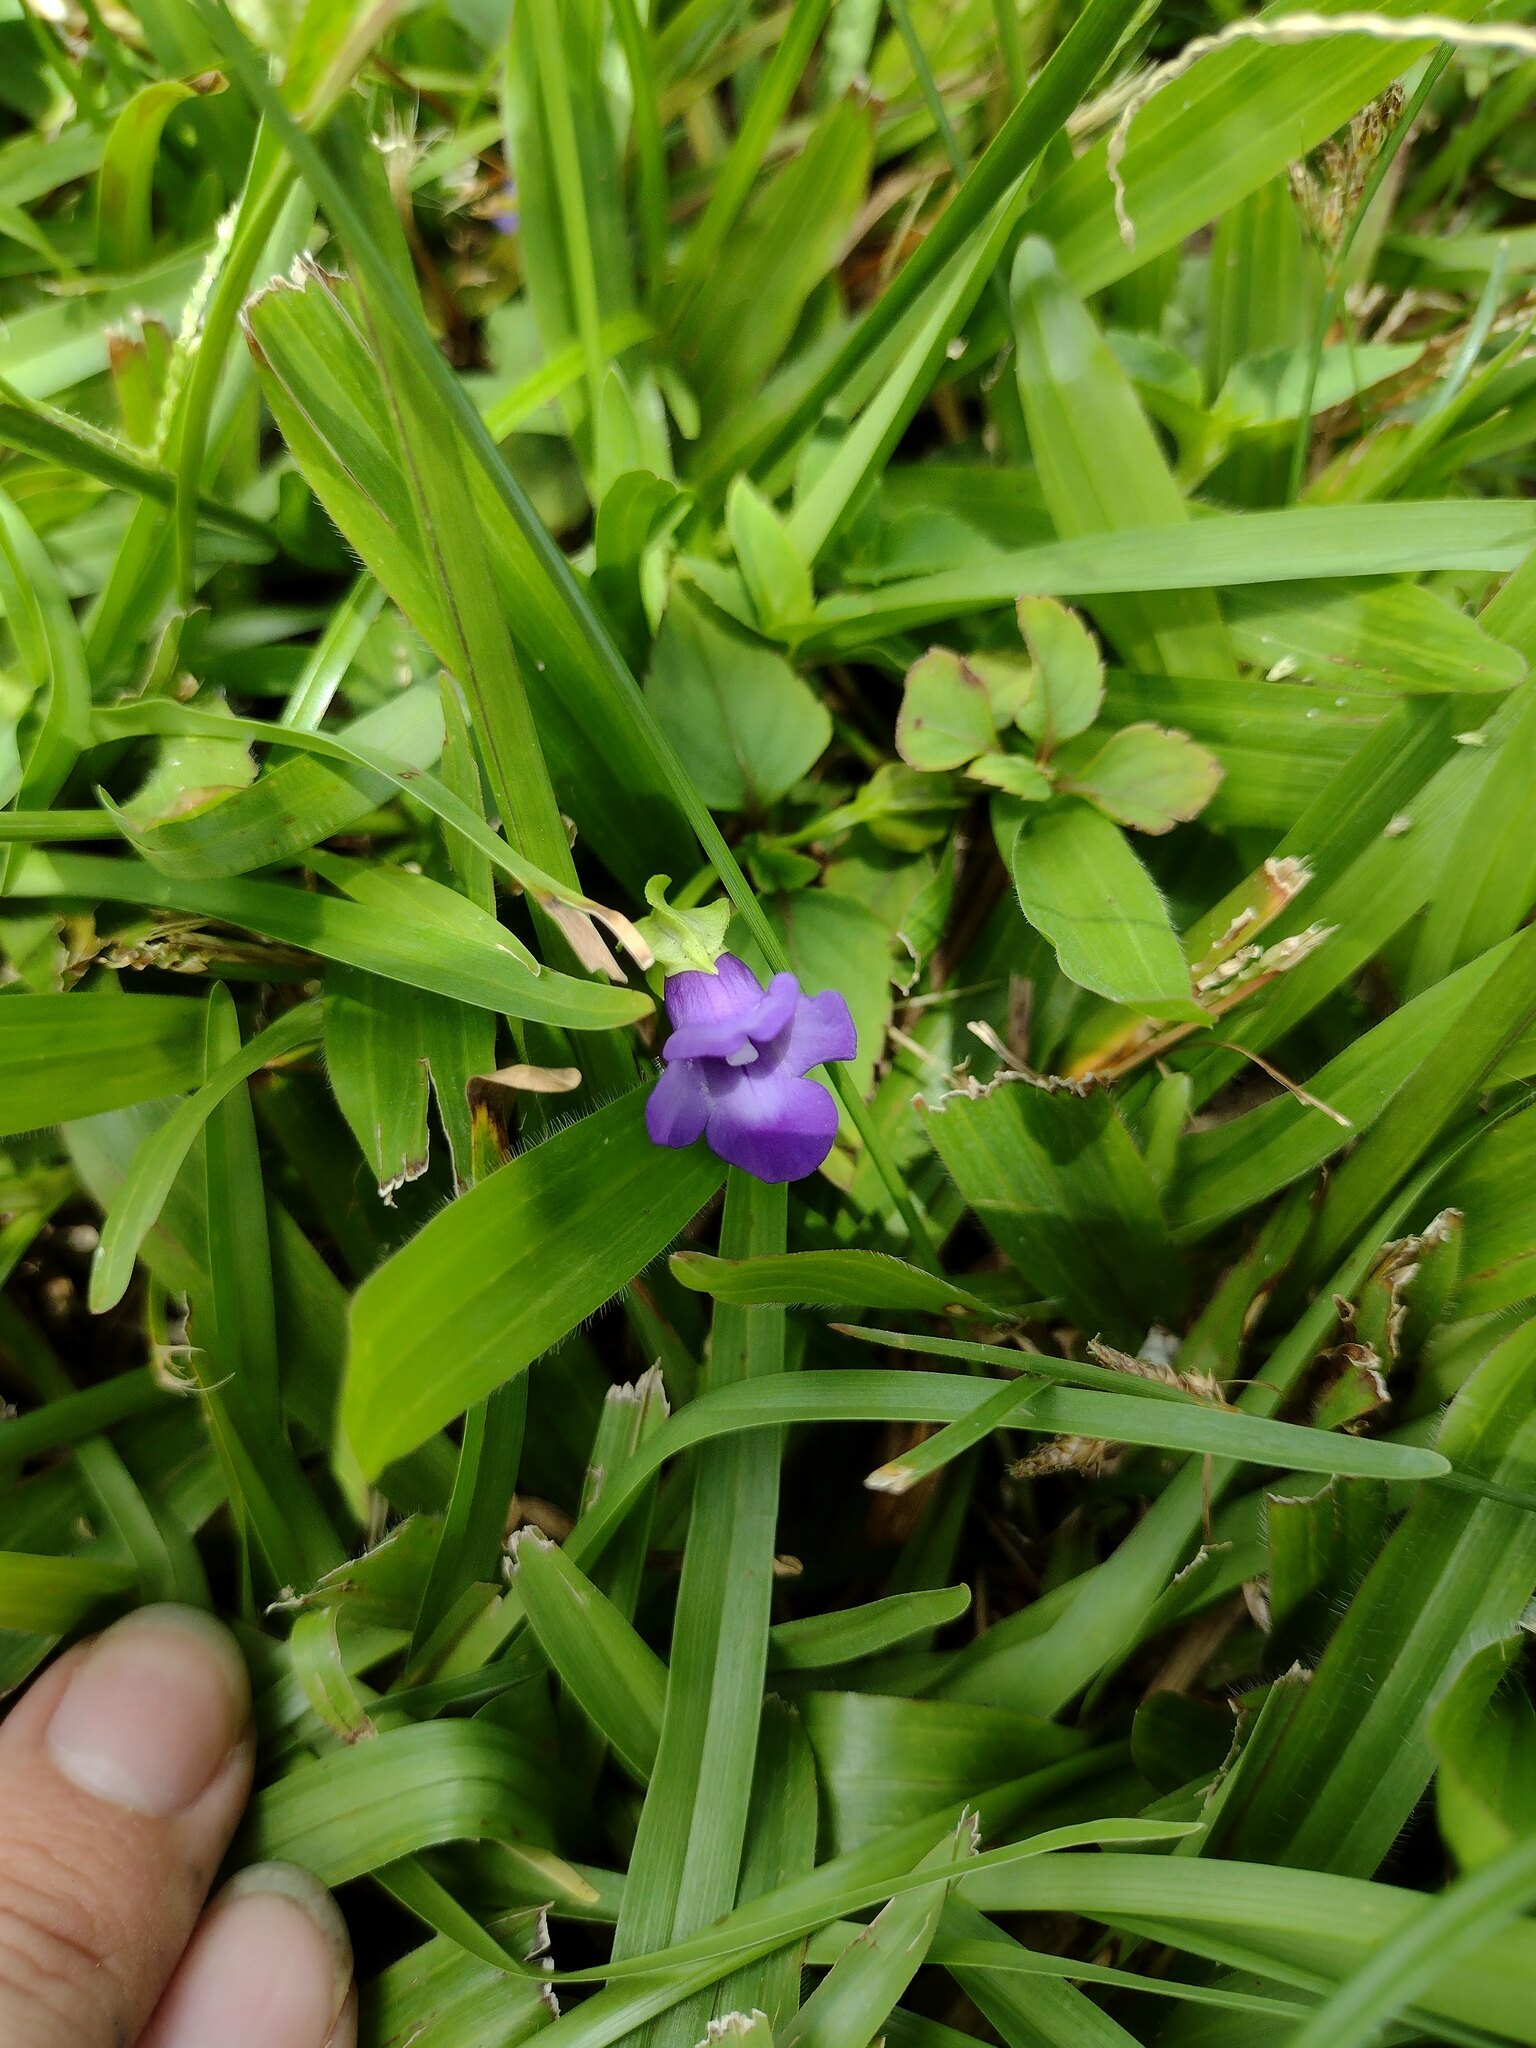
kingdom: Plantae
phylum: Tracheophyta
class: Magnoliopsida
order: Lamiales
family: Linderniaceae
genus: Torenia
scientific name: Torenia asiatica
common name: Wishbone flower
